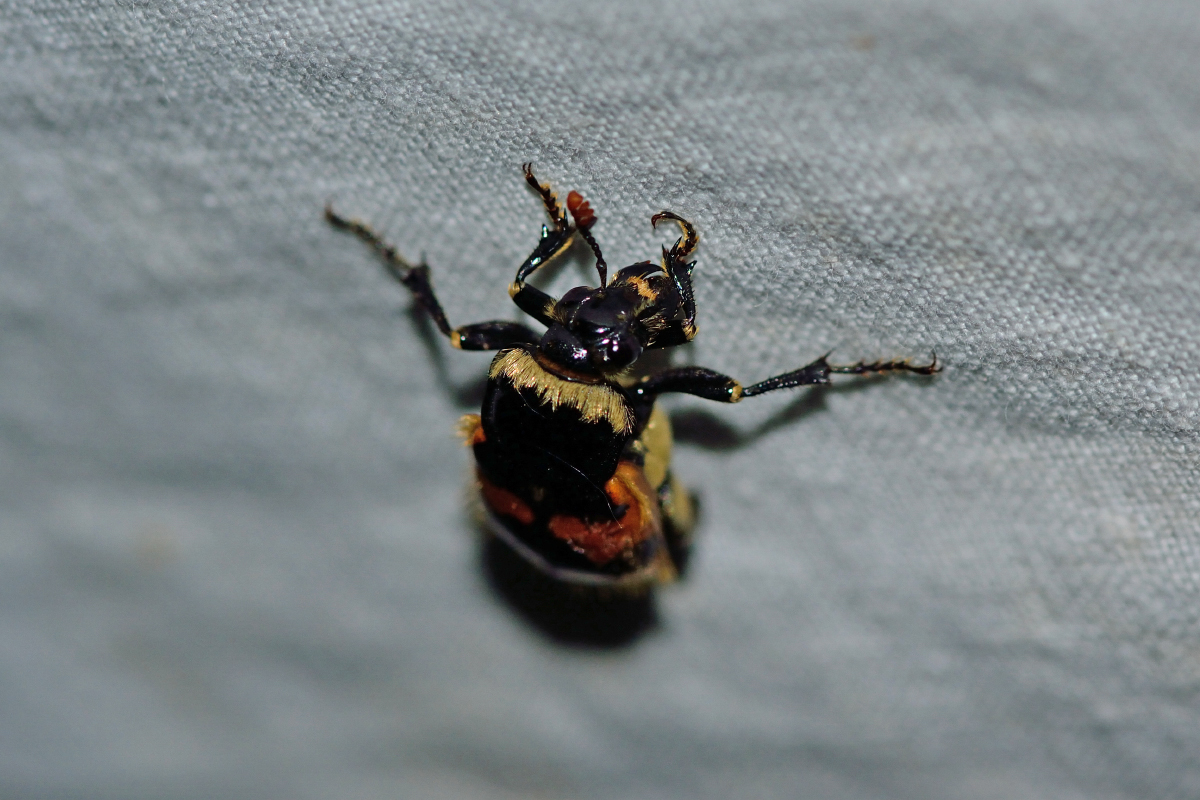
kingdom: Animalia
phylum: Arthropoda
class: Insecta
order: Coleoptera
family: Staphylinidae
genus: Nicrophorus
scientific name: Nicrophorus vespillo
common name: Common burying beetle
